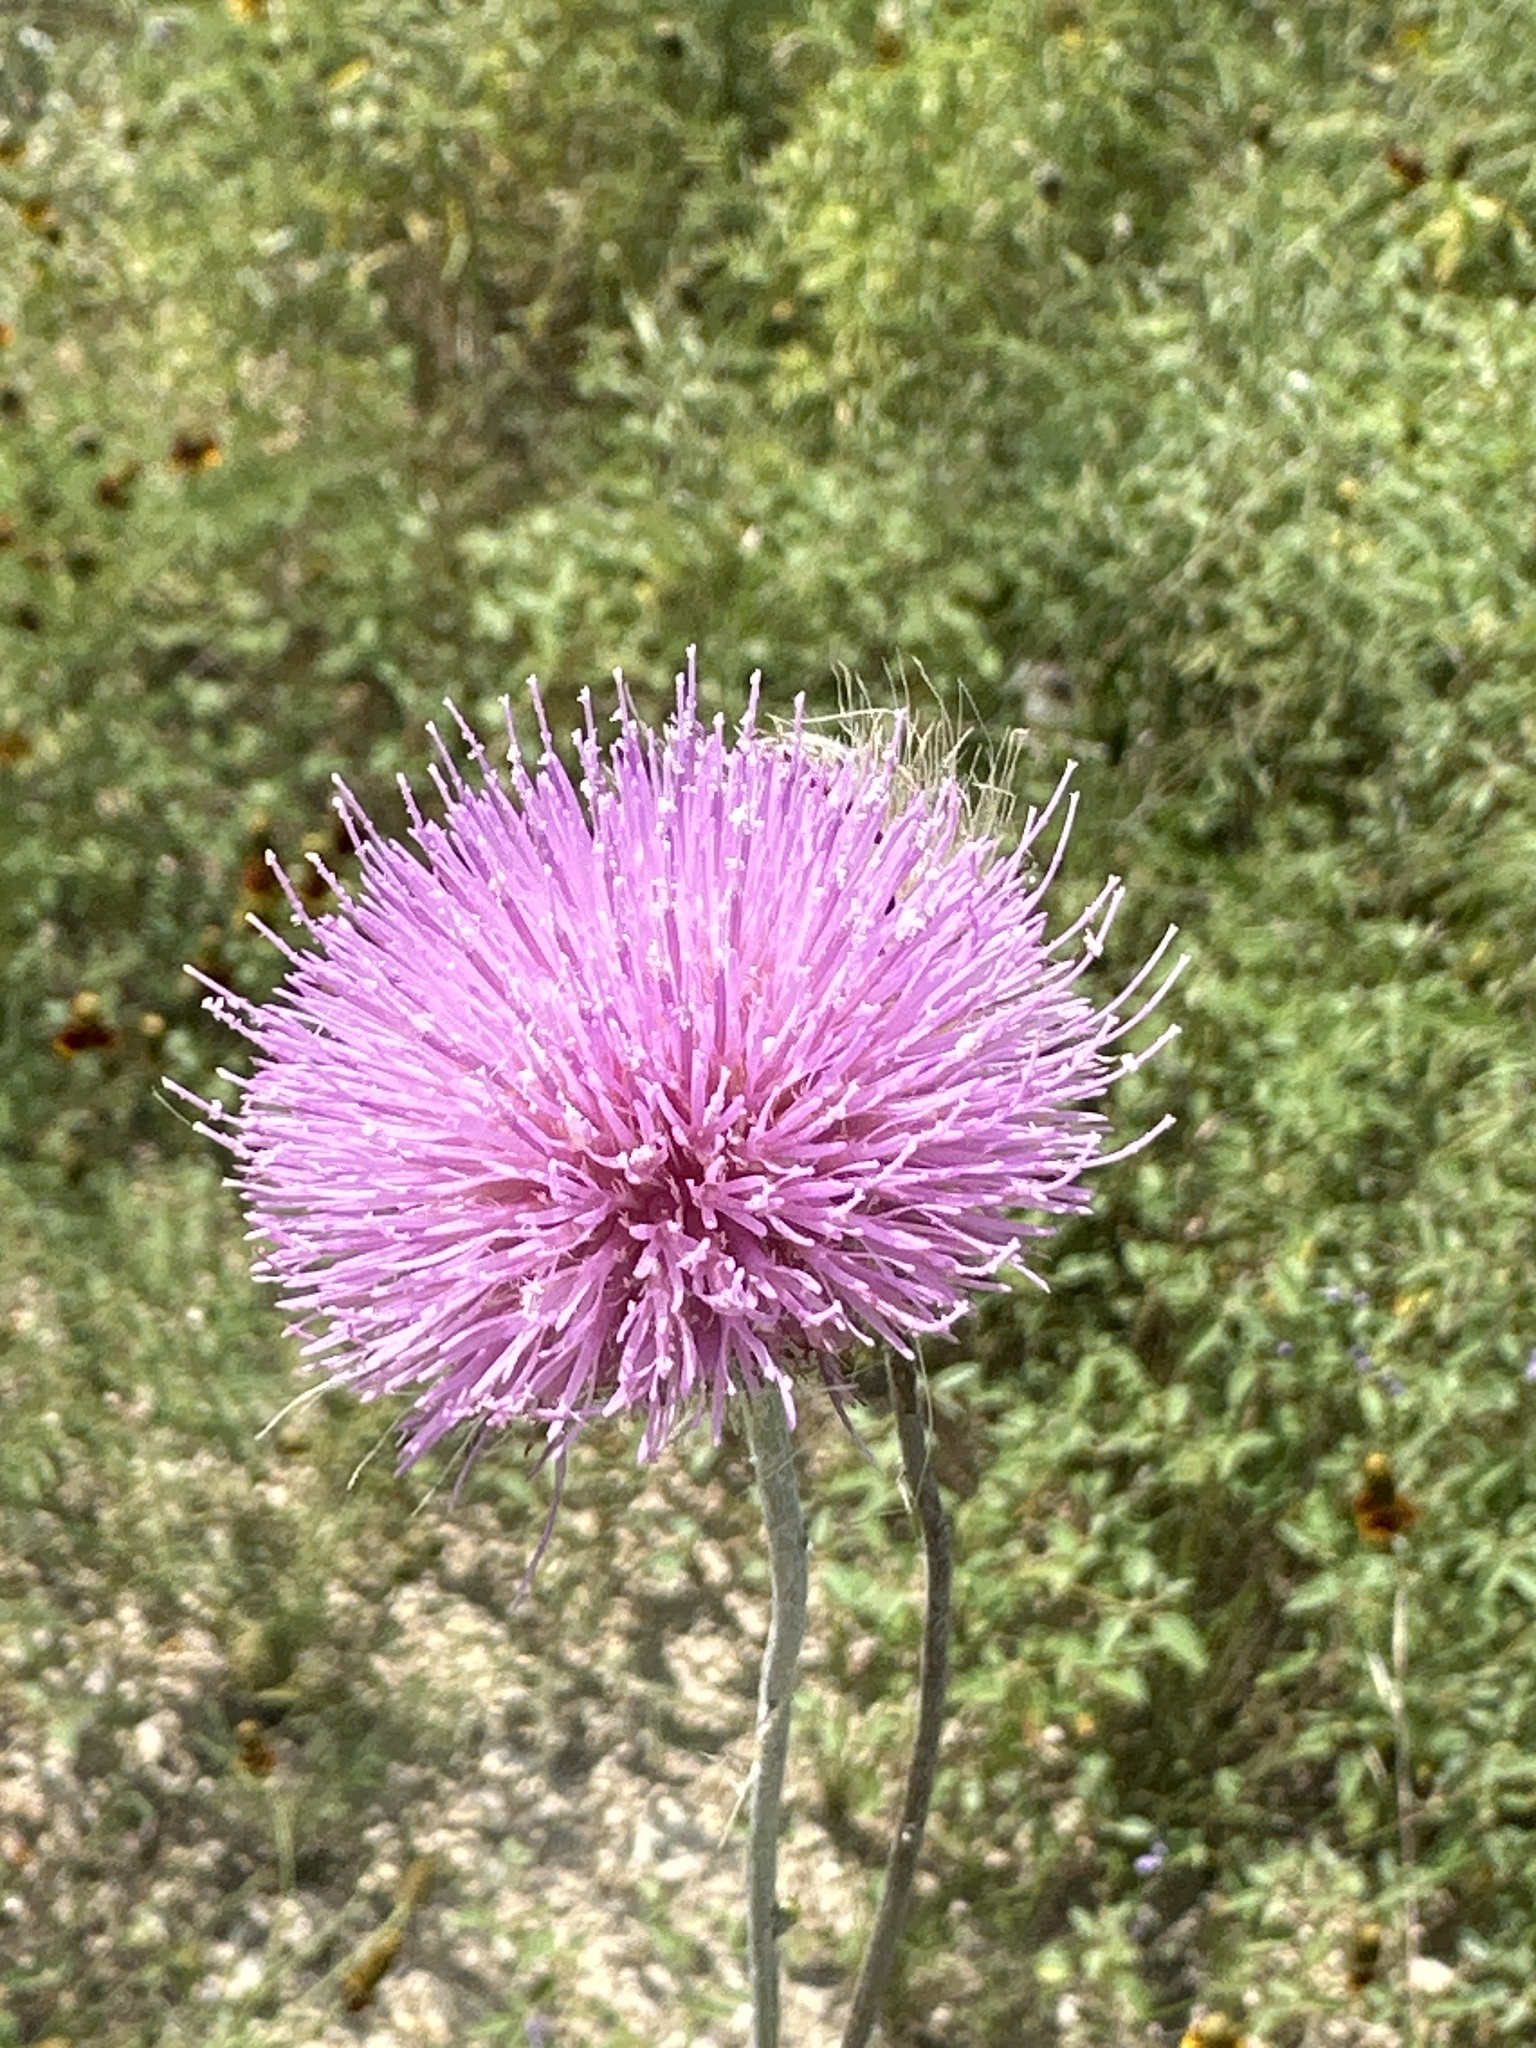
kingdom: Plantae
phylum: Tracheophyta
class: Magnoliopsida
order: Asterales
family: Asteraceae
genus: Cirsium
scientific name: Cirsium texanum
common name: Texas purple thistle
